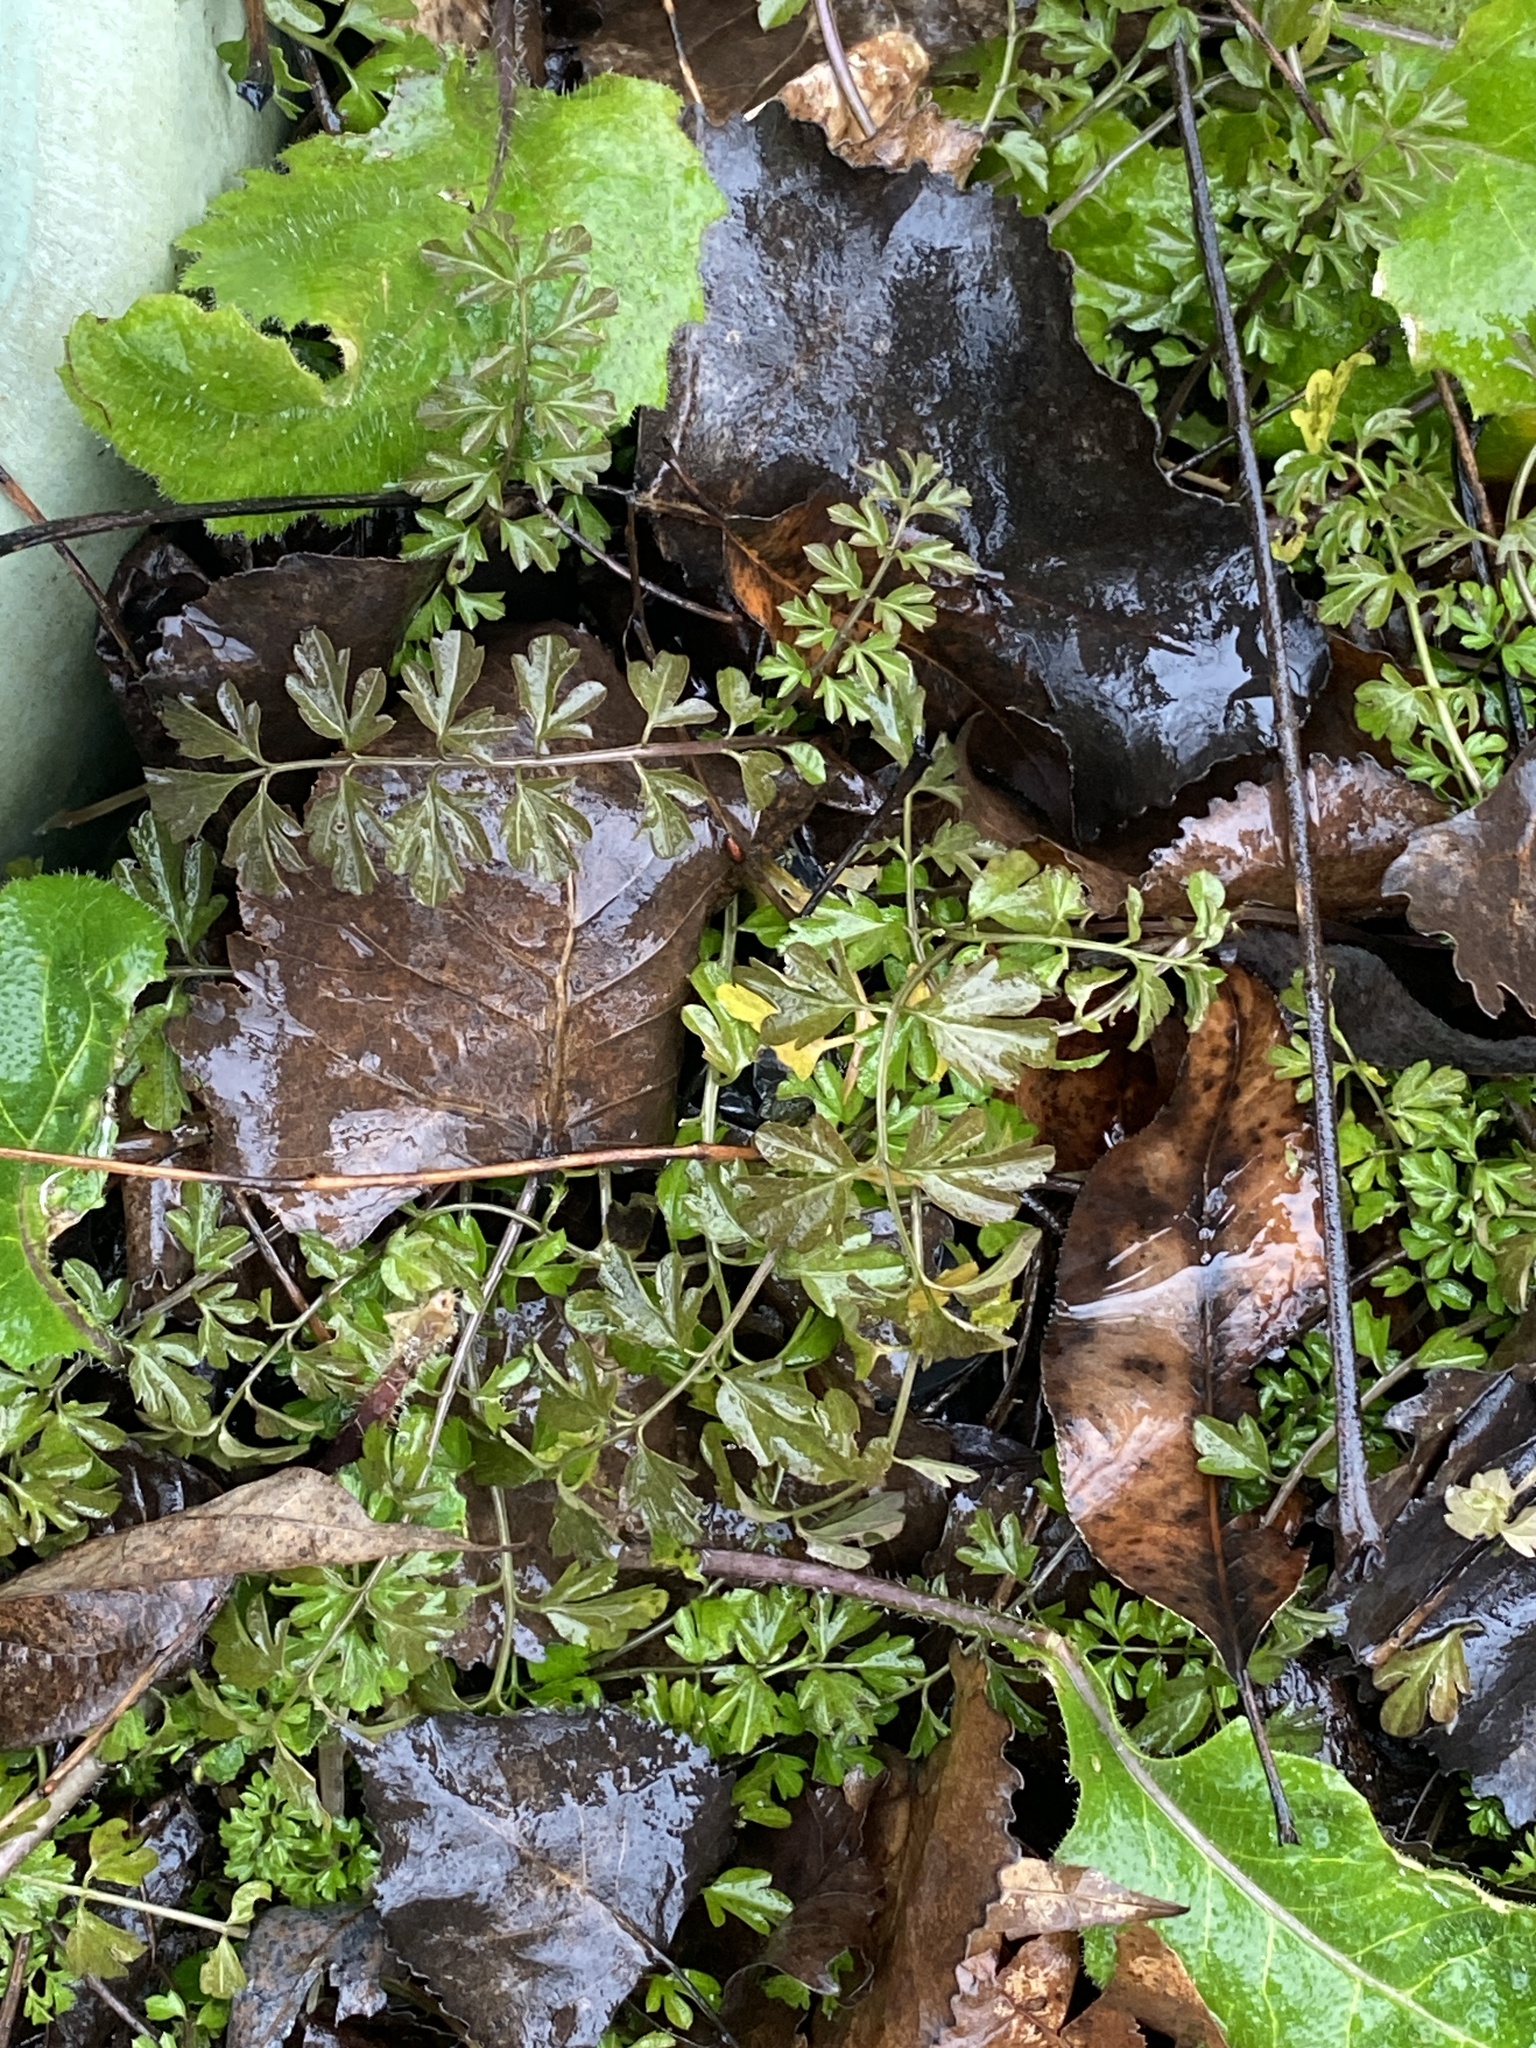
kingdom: Plantae
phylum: Tracheophyta
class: Magnoliopsida
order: Brassicales
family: Brassicaceae
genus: Cardamine
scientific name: Cardamine impatiens
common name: Narrow-leaved bitter-cress
